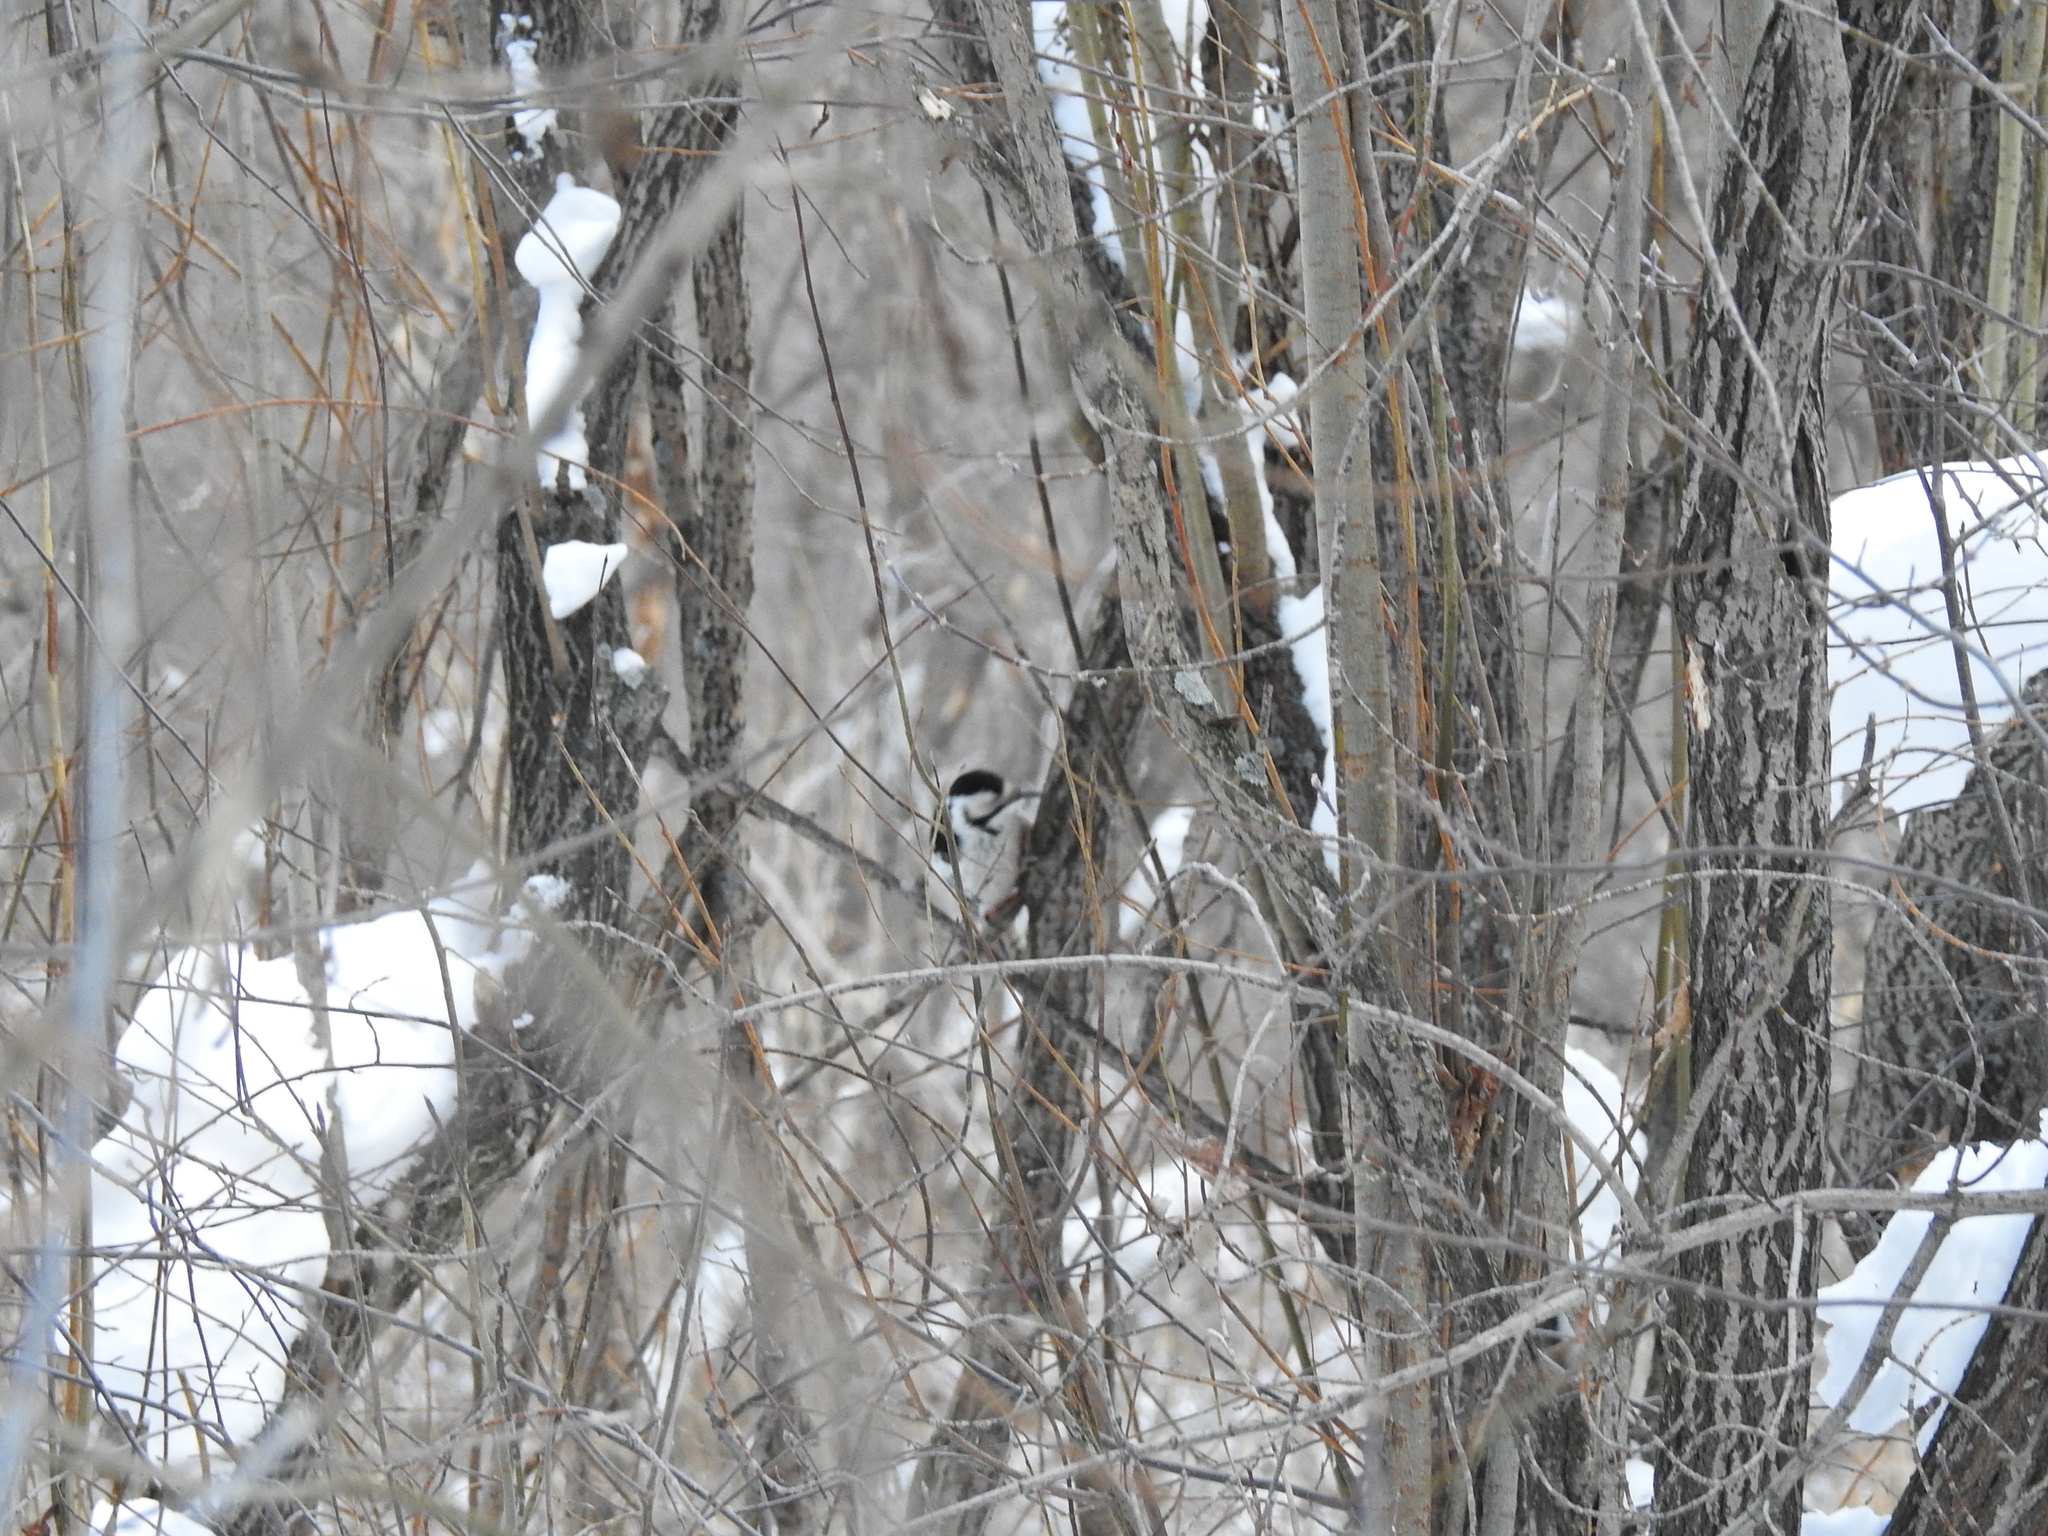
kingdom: Animalia
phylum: Chordata
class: Aves
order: Piciformes
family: Picidae
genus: Dendrocopos
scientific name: Dendrocopos leucotos
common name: White-backed woodpecker
